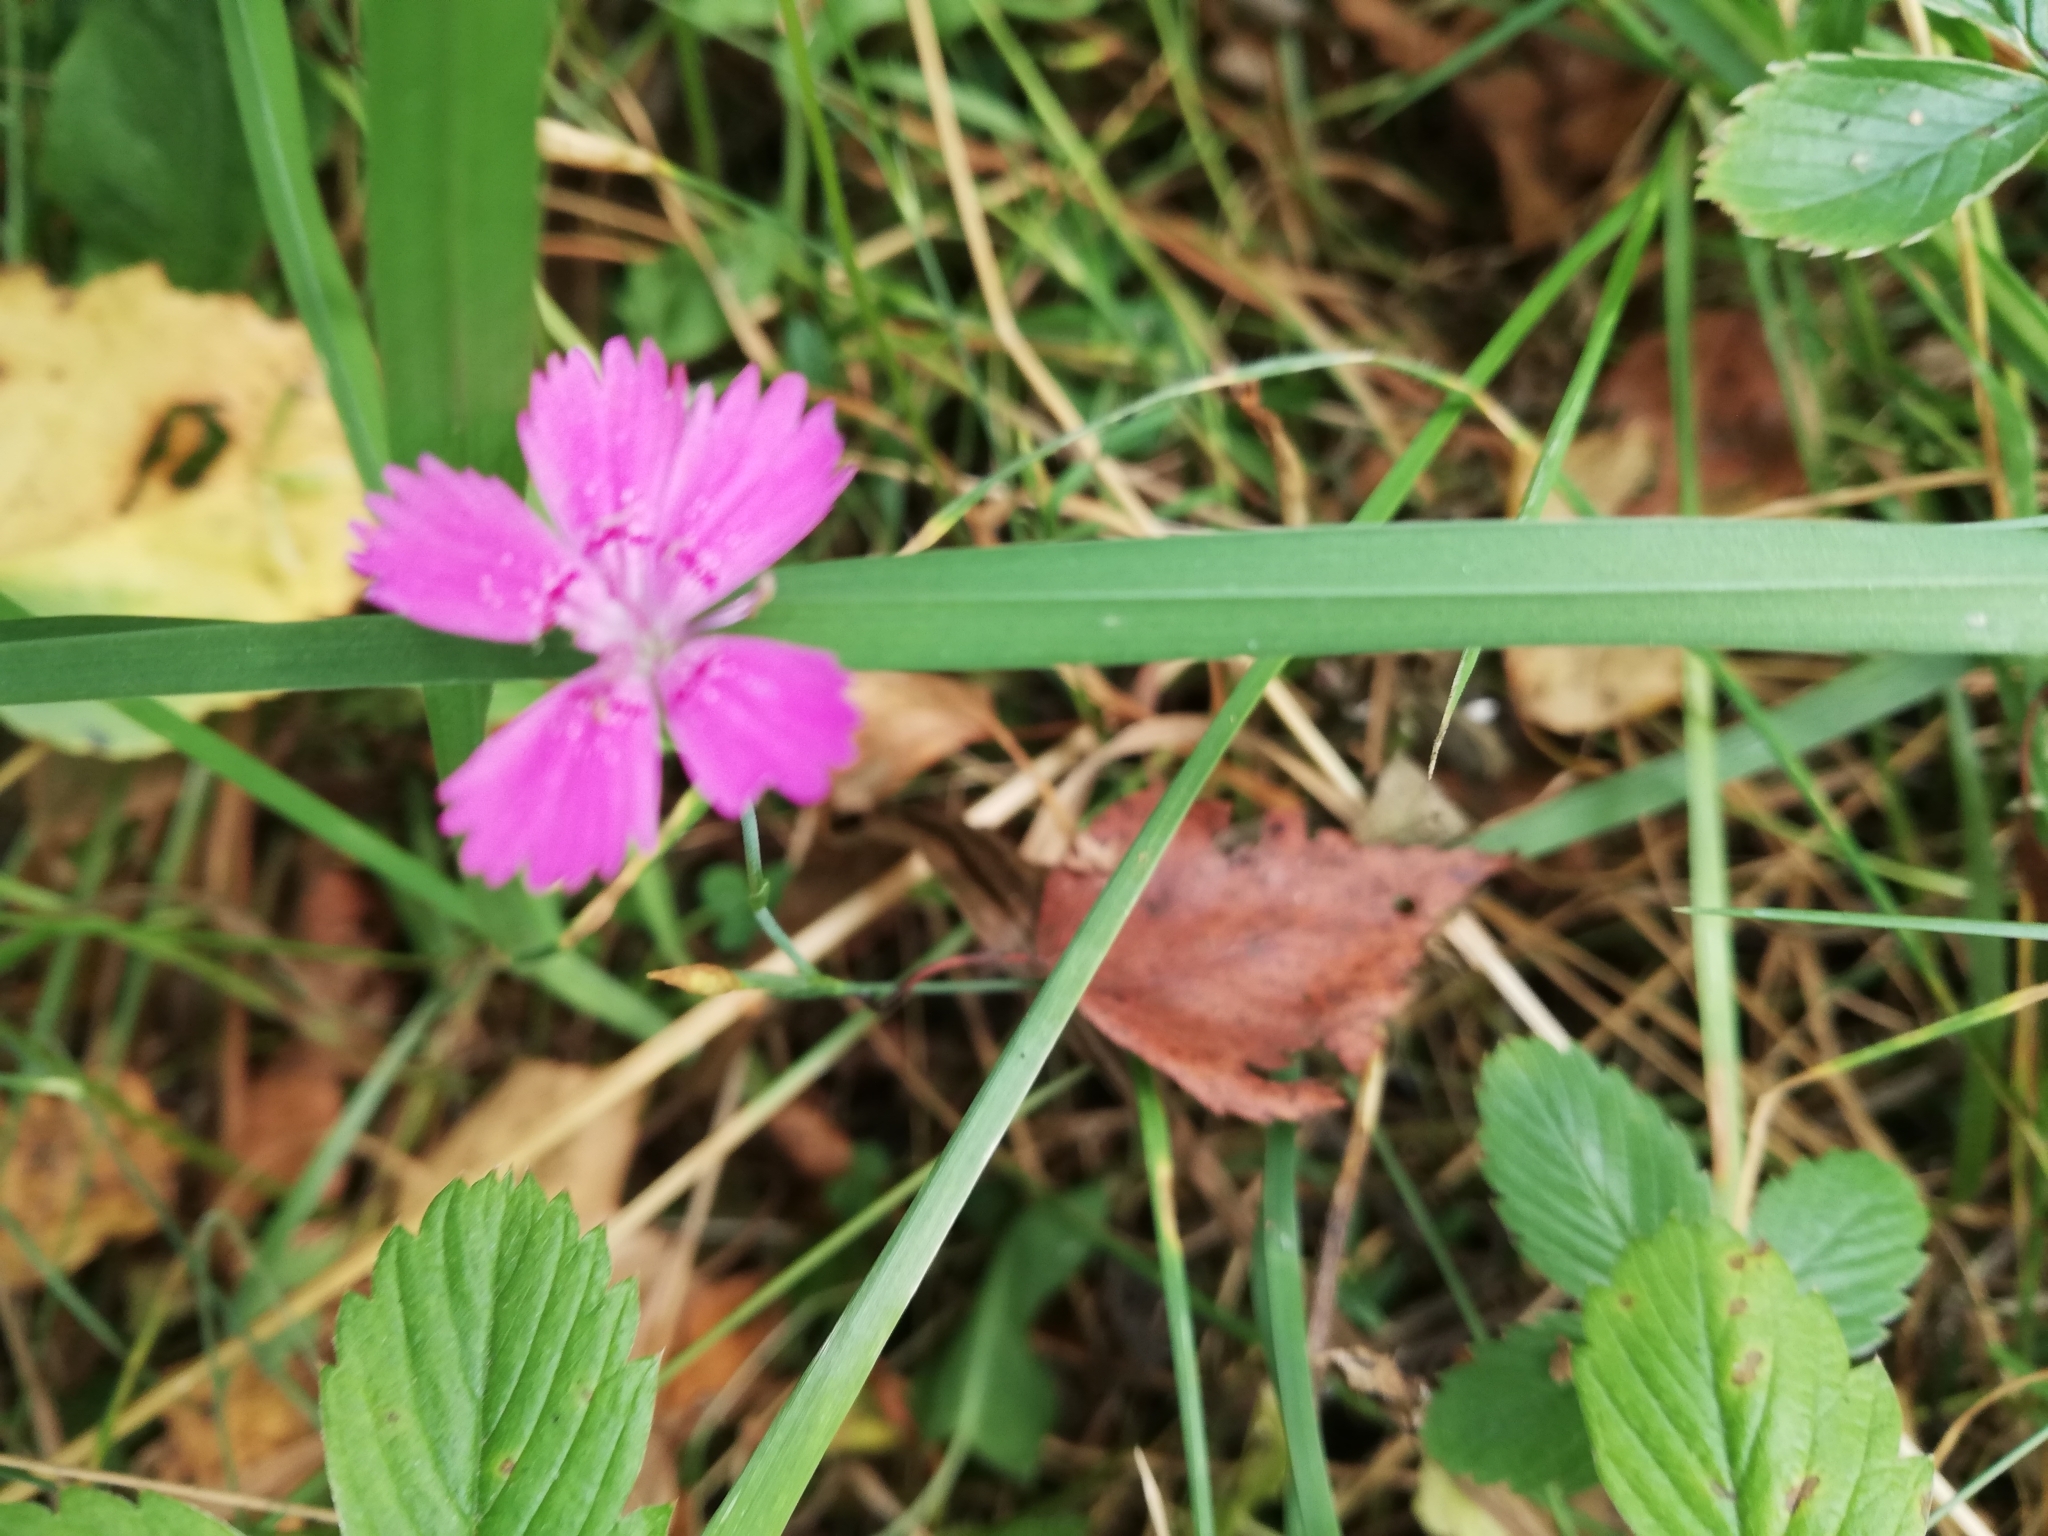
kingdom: Plantae
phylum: Tracheophyta
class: Magnoliopsida
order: Caryophyllales
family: Caryophyllaceae
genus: Dianthus
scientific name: Dianthus deltoides
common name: Maiden pink
